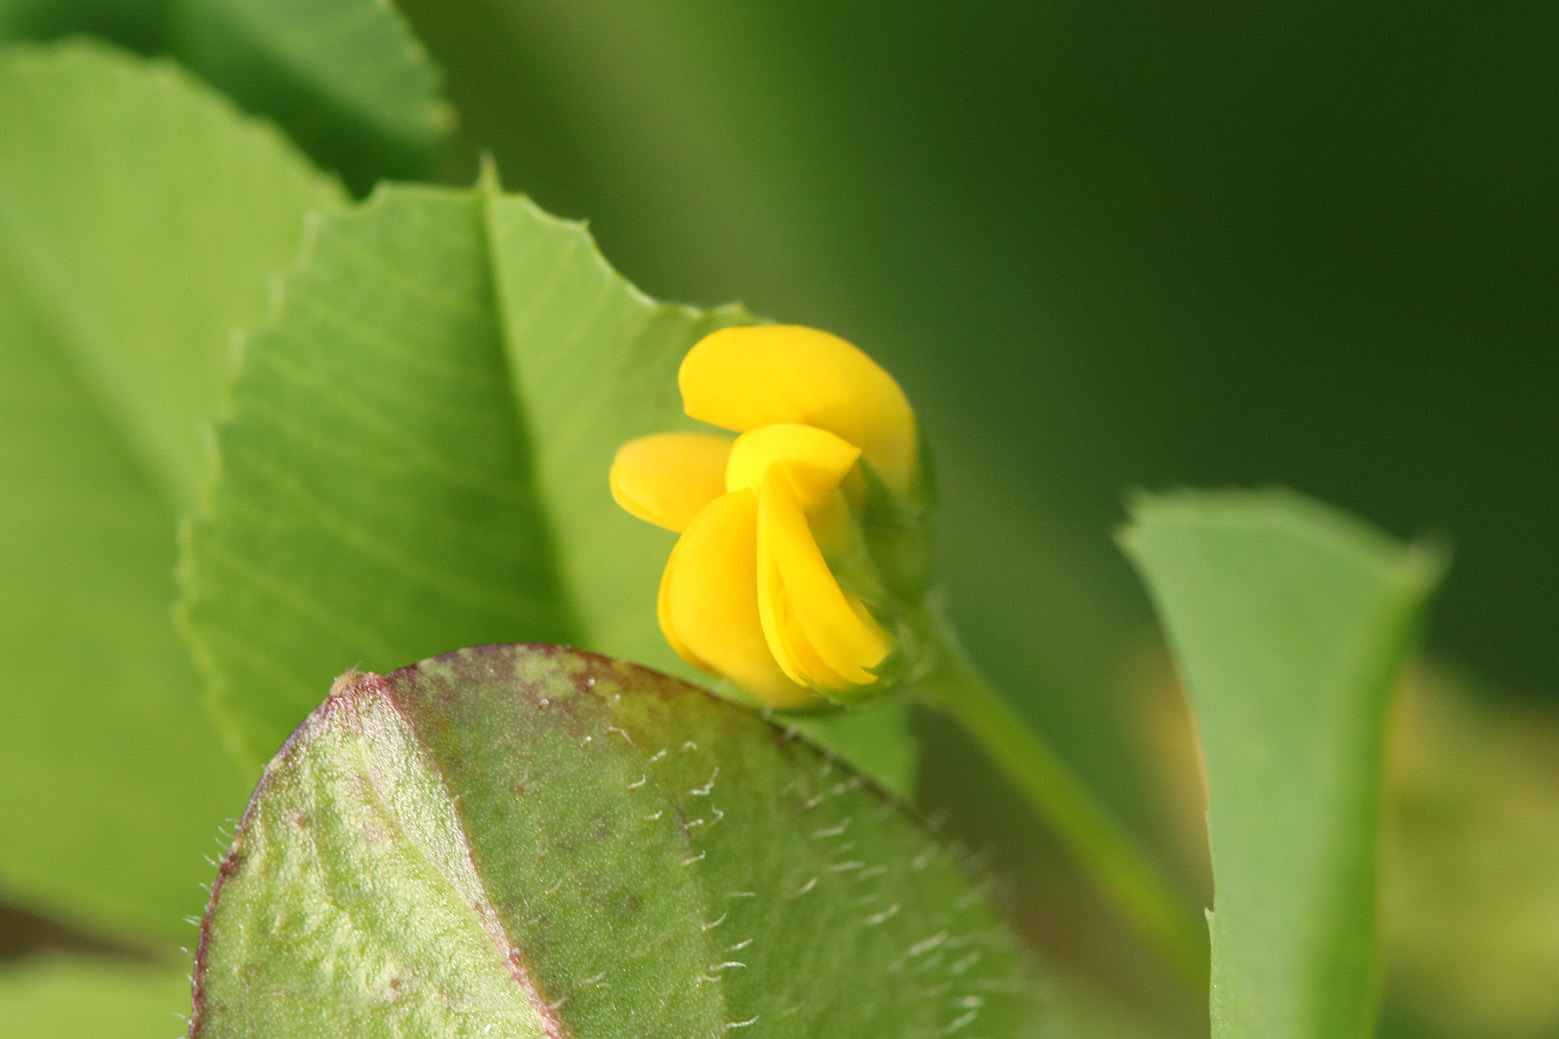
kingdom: Plantae
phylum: Tracheophyta
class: Magnoliopsida
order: Fabales
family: Fabaceae
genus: Medicago
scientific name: Medicago polymorpha
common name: Burclover
